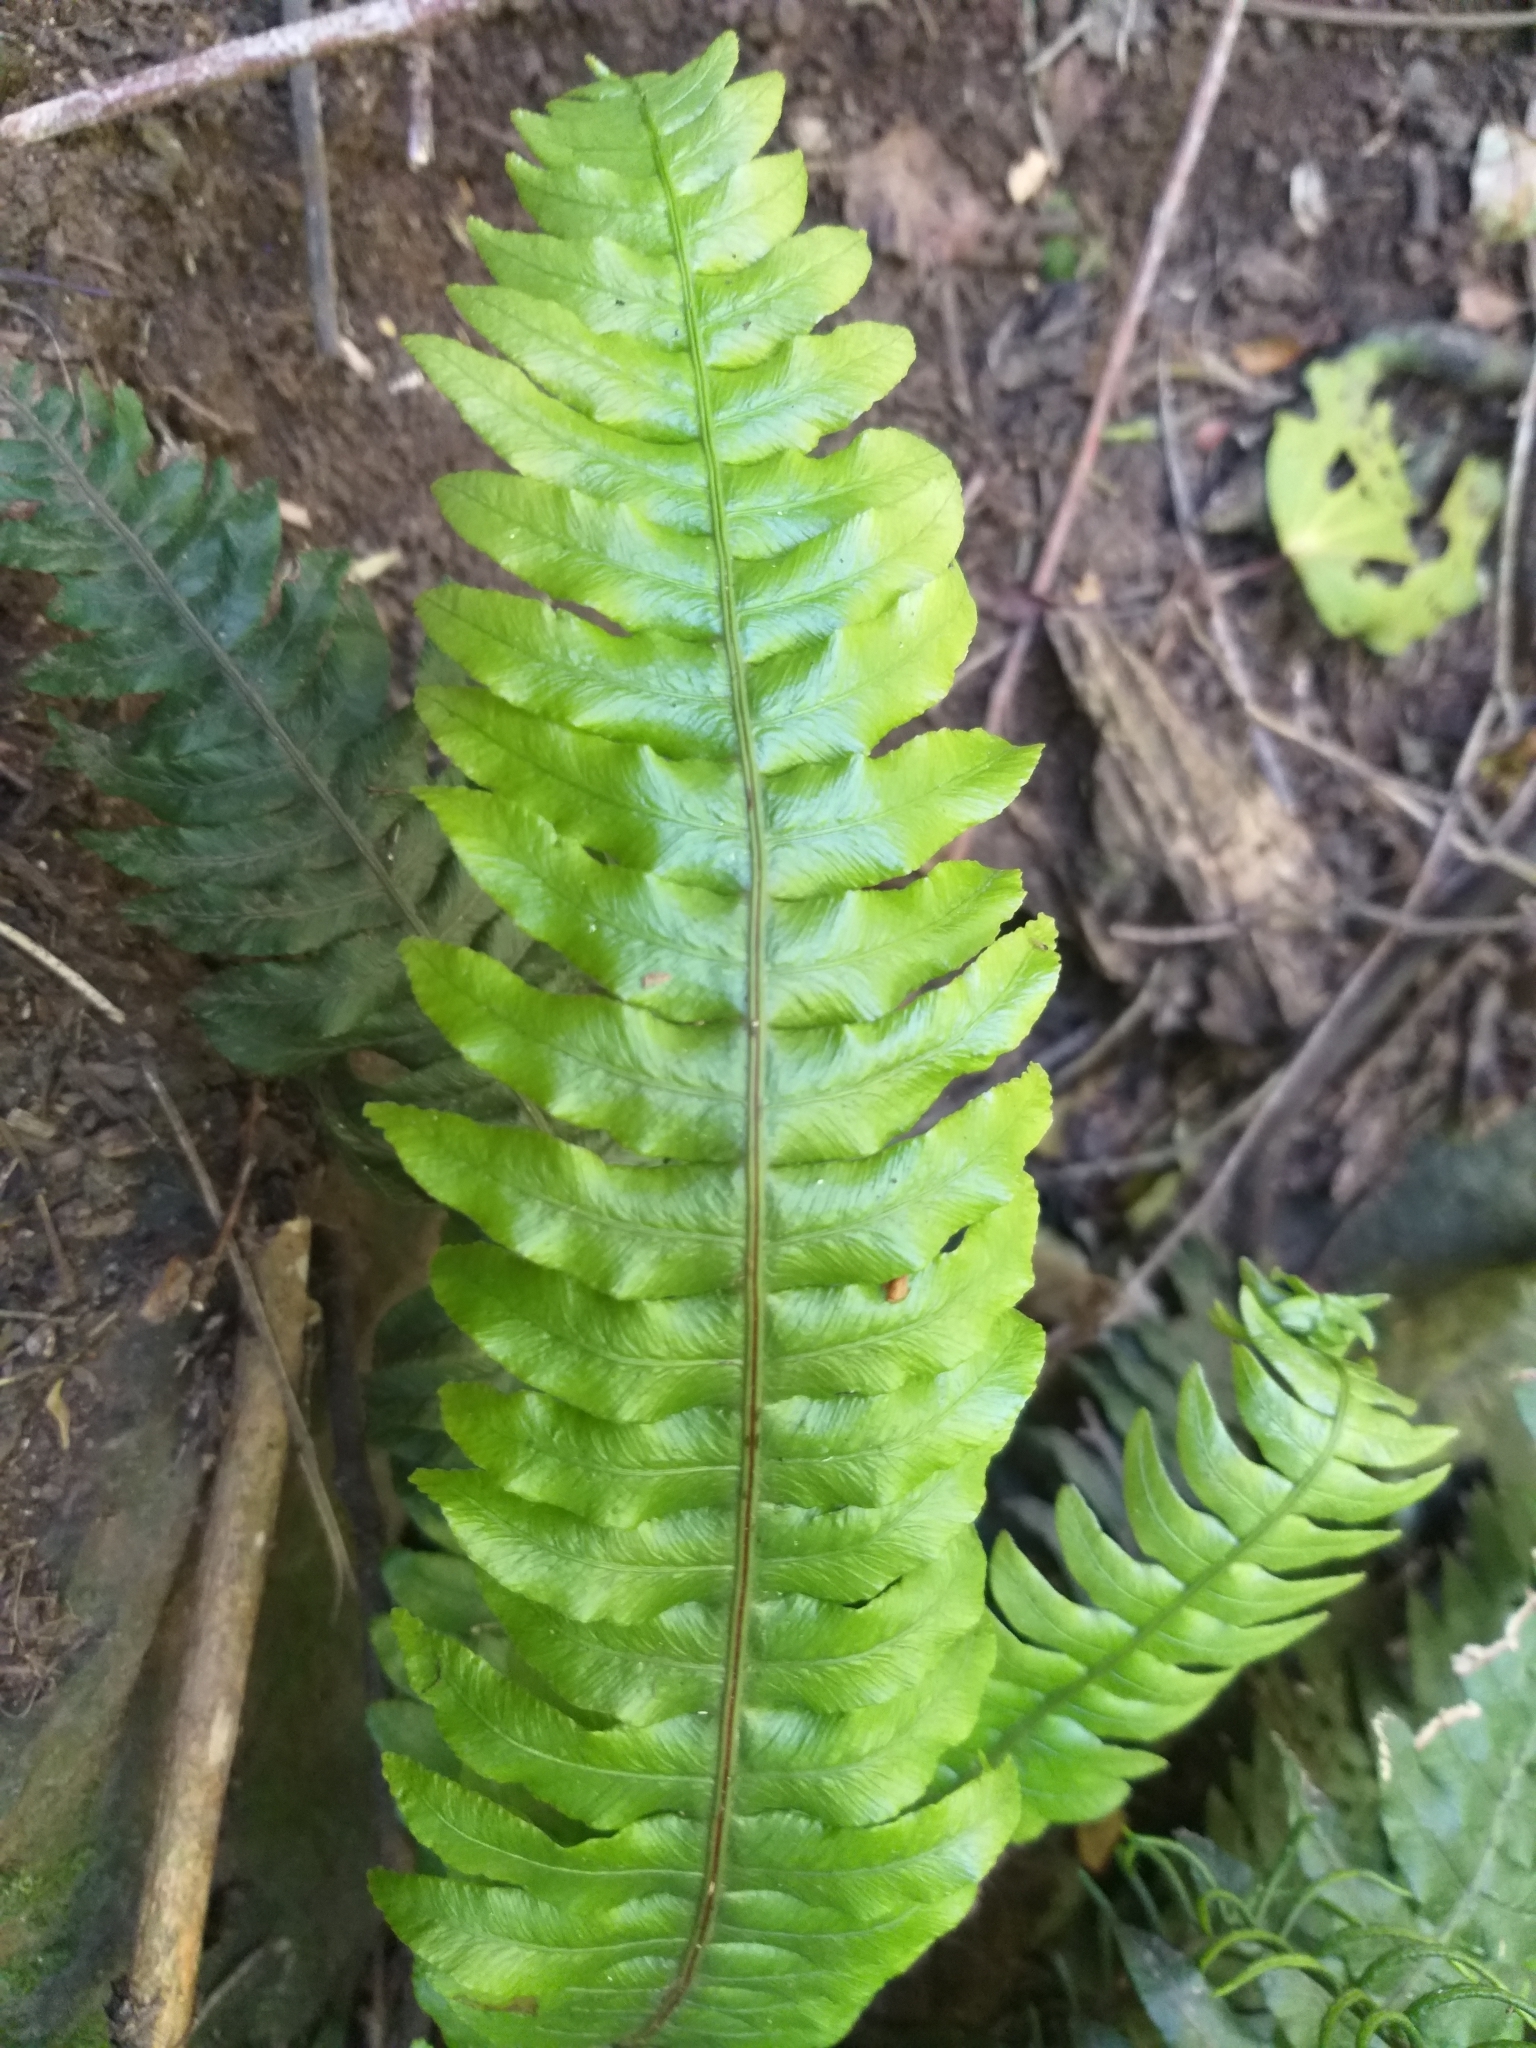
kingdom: Plantae
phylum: Tracheophyta
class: Polypodiopsida
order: Polypodiales
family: Blechnaceae
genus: Lomaria
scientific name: Lomaria discolor
